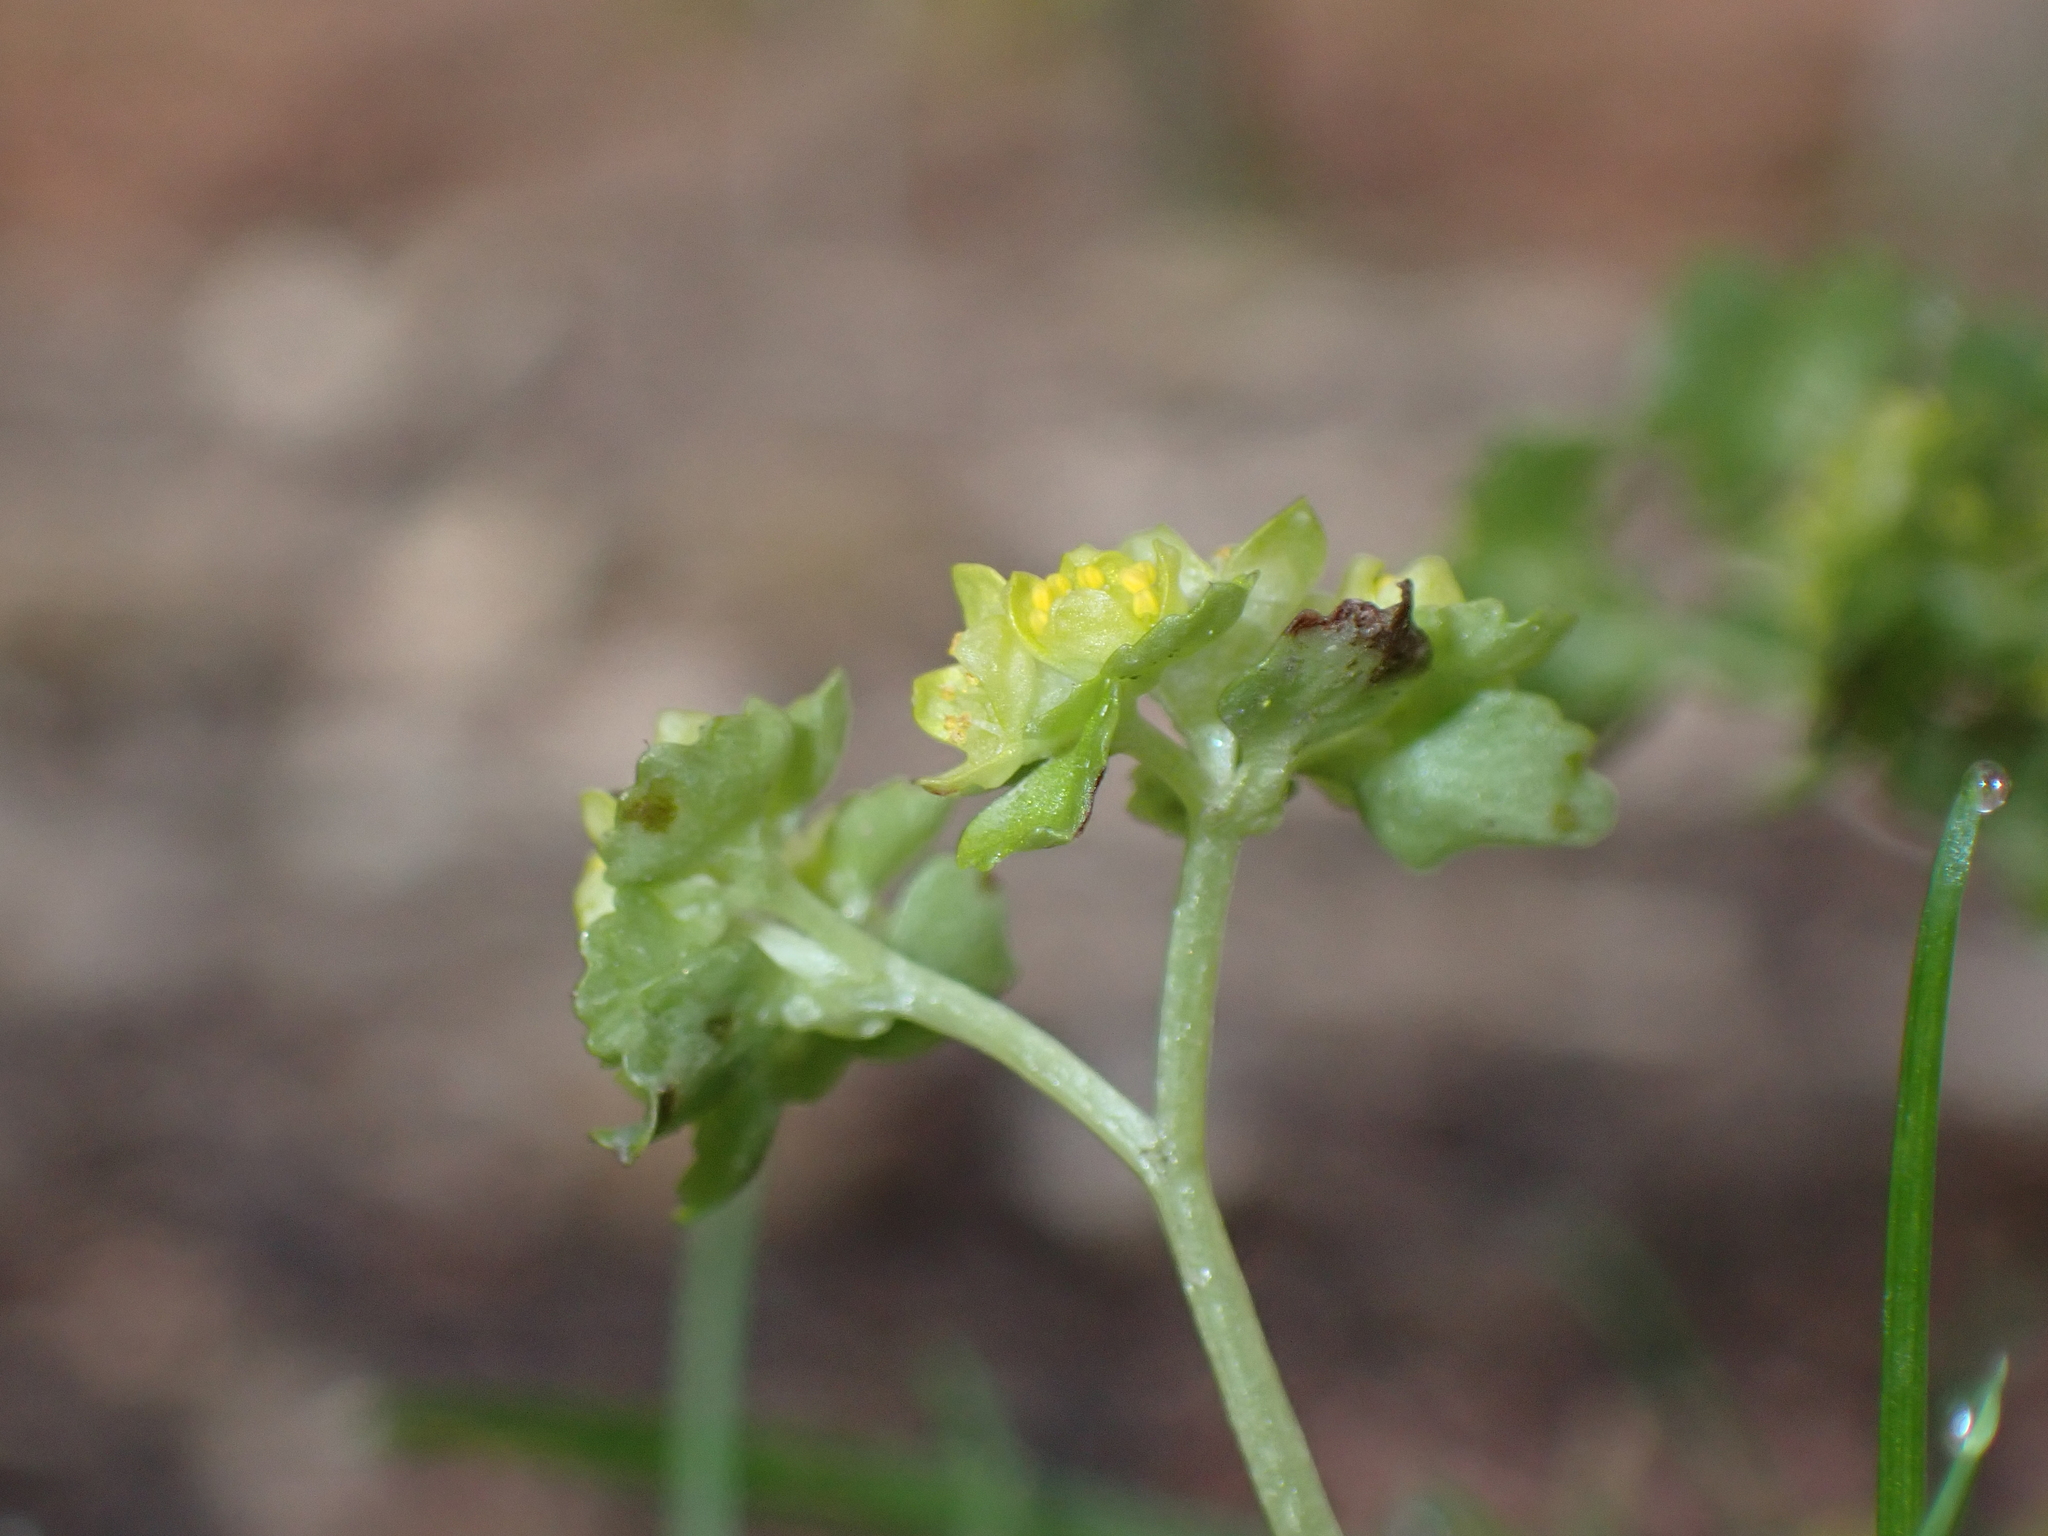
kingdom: Plantae
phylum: Tracheophyta
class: Magnoliopsida
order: Saxifragales
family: Saxifragaceae
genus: Chrysosplenium
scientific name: Chrysosplenium oppositifolium
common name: Opposite-leaved golden-saxifrage
